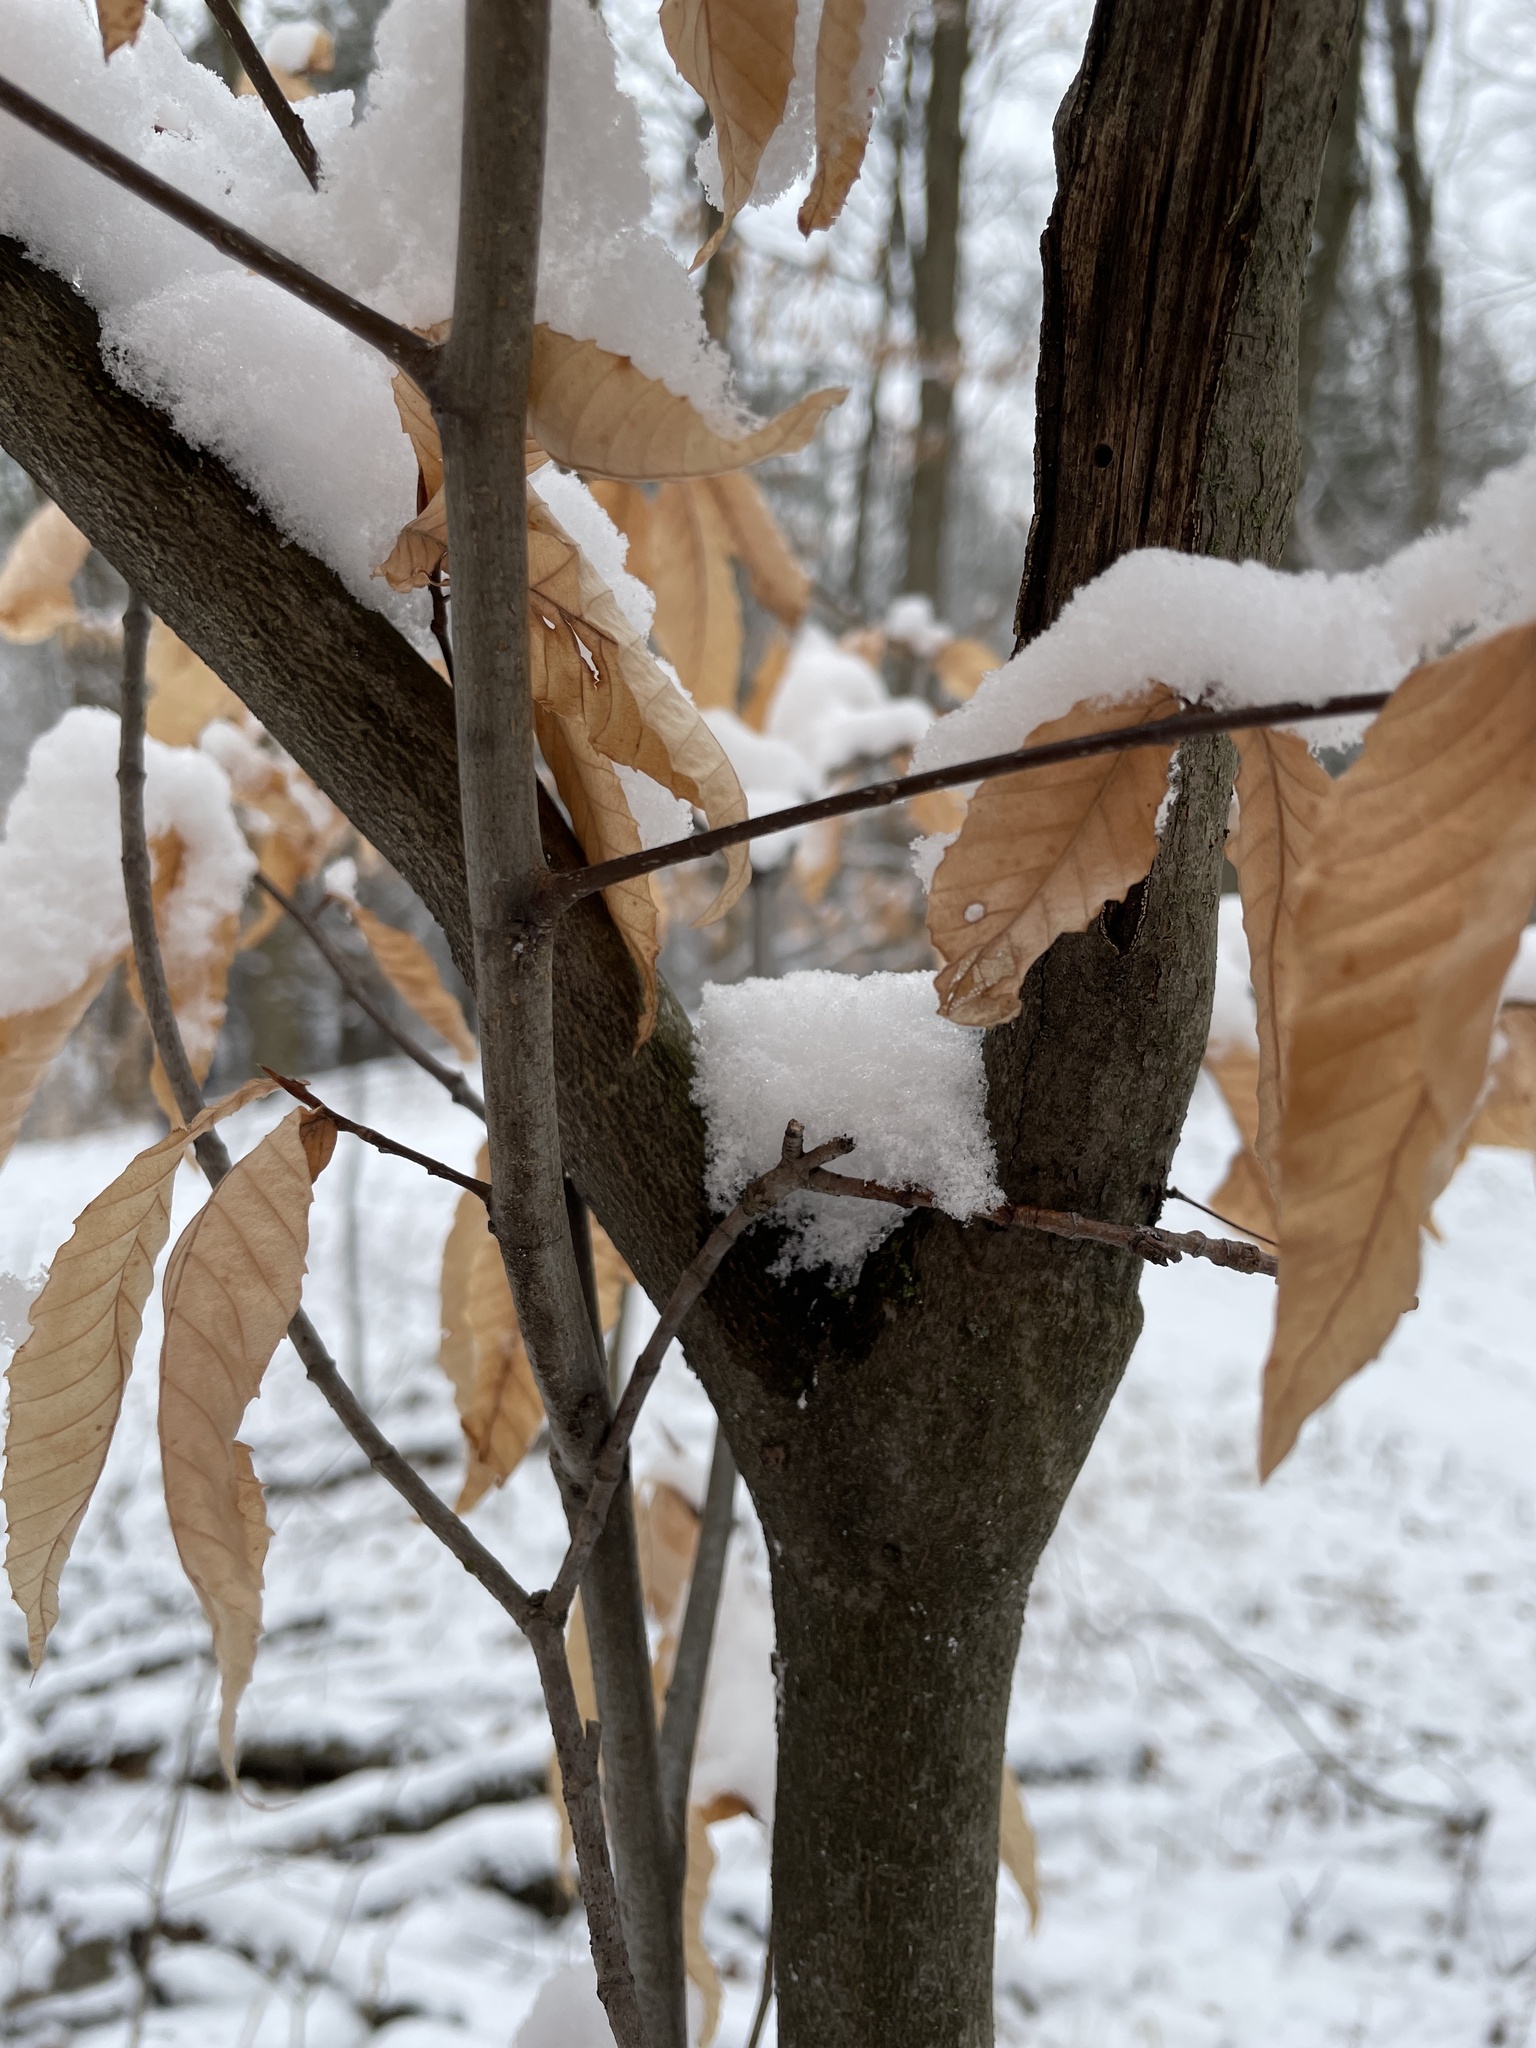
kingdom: Plantae
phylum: Tracheophyta
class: Magnoliopsida
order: Fagales
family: Fagaceae
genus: Fagus
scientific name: Fagus grandifolia
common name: American beech
